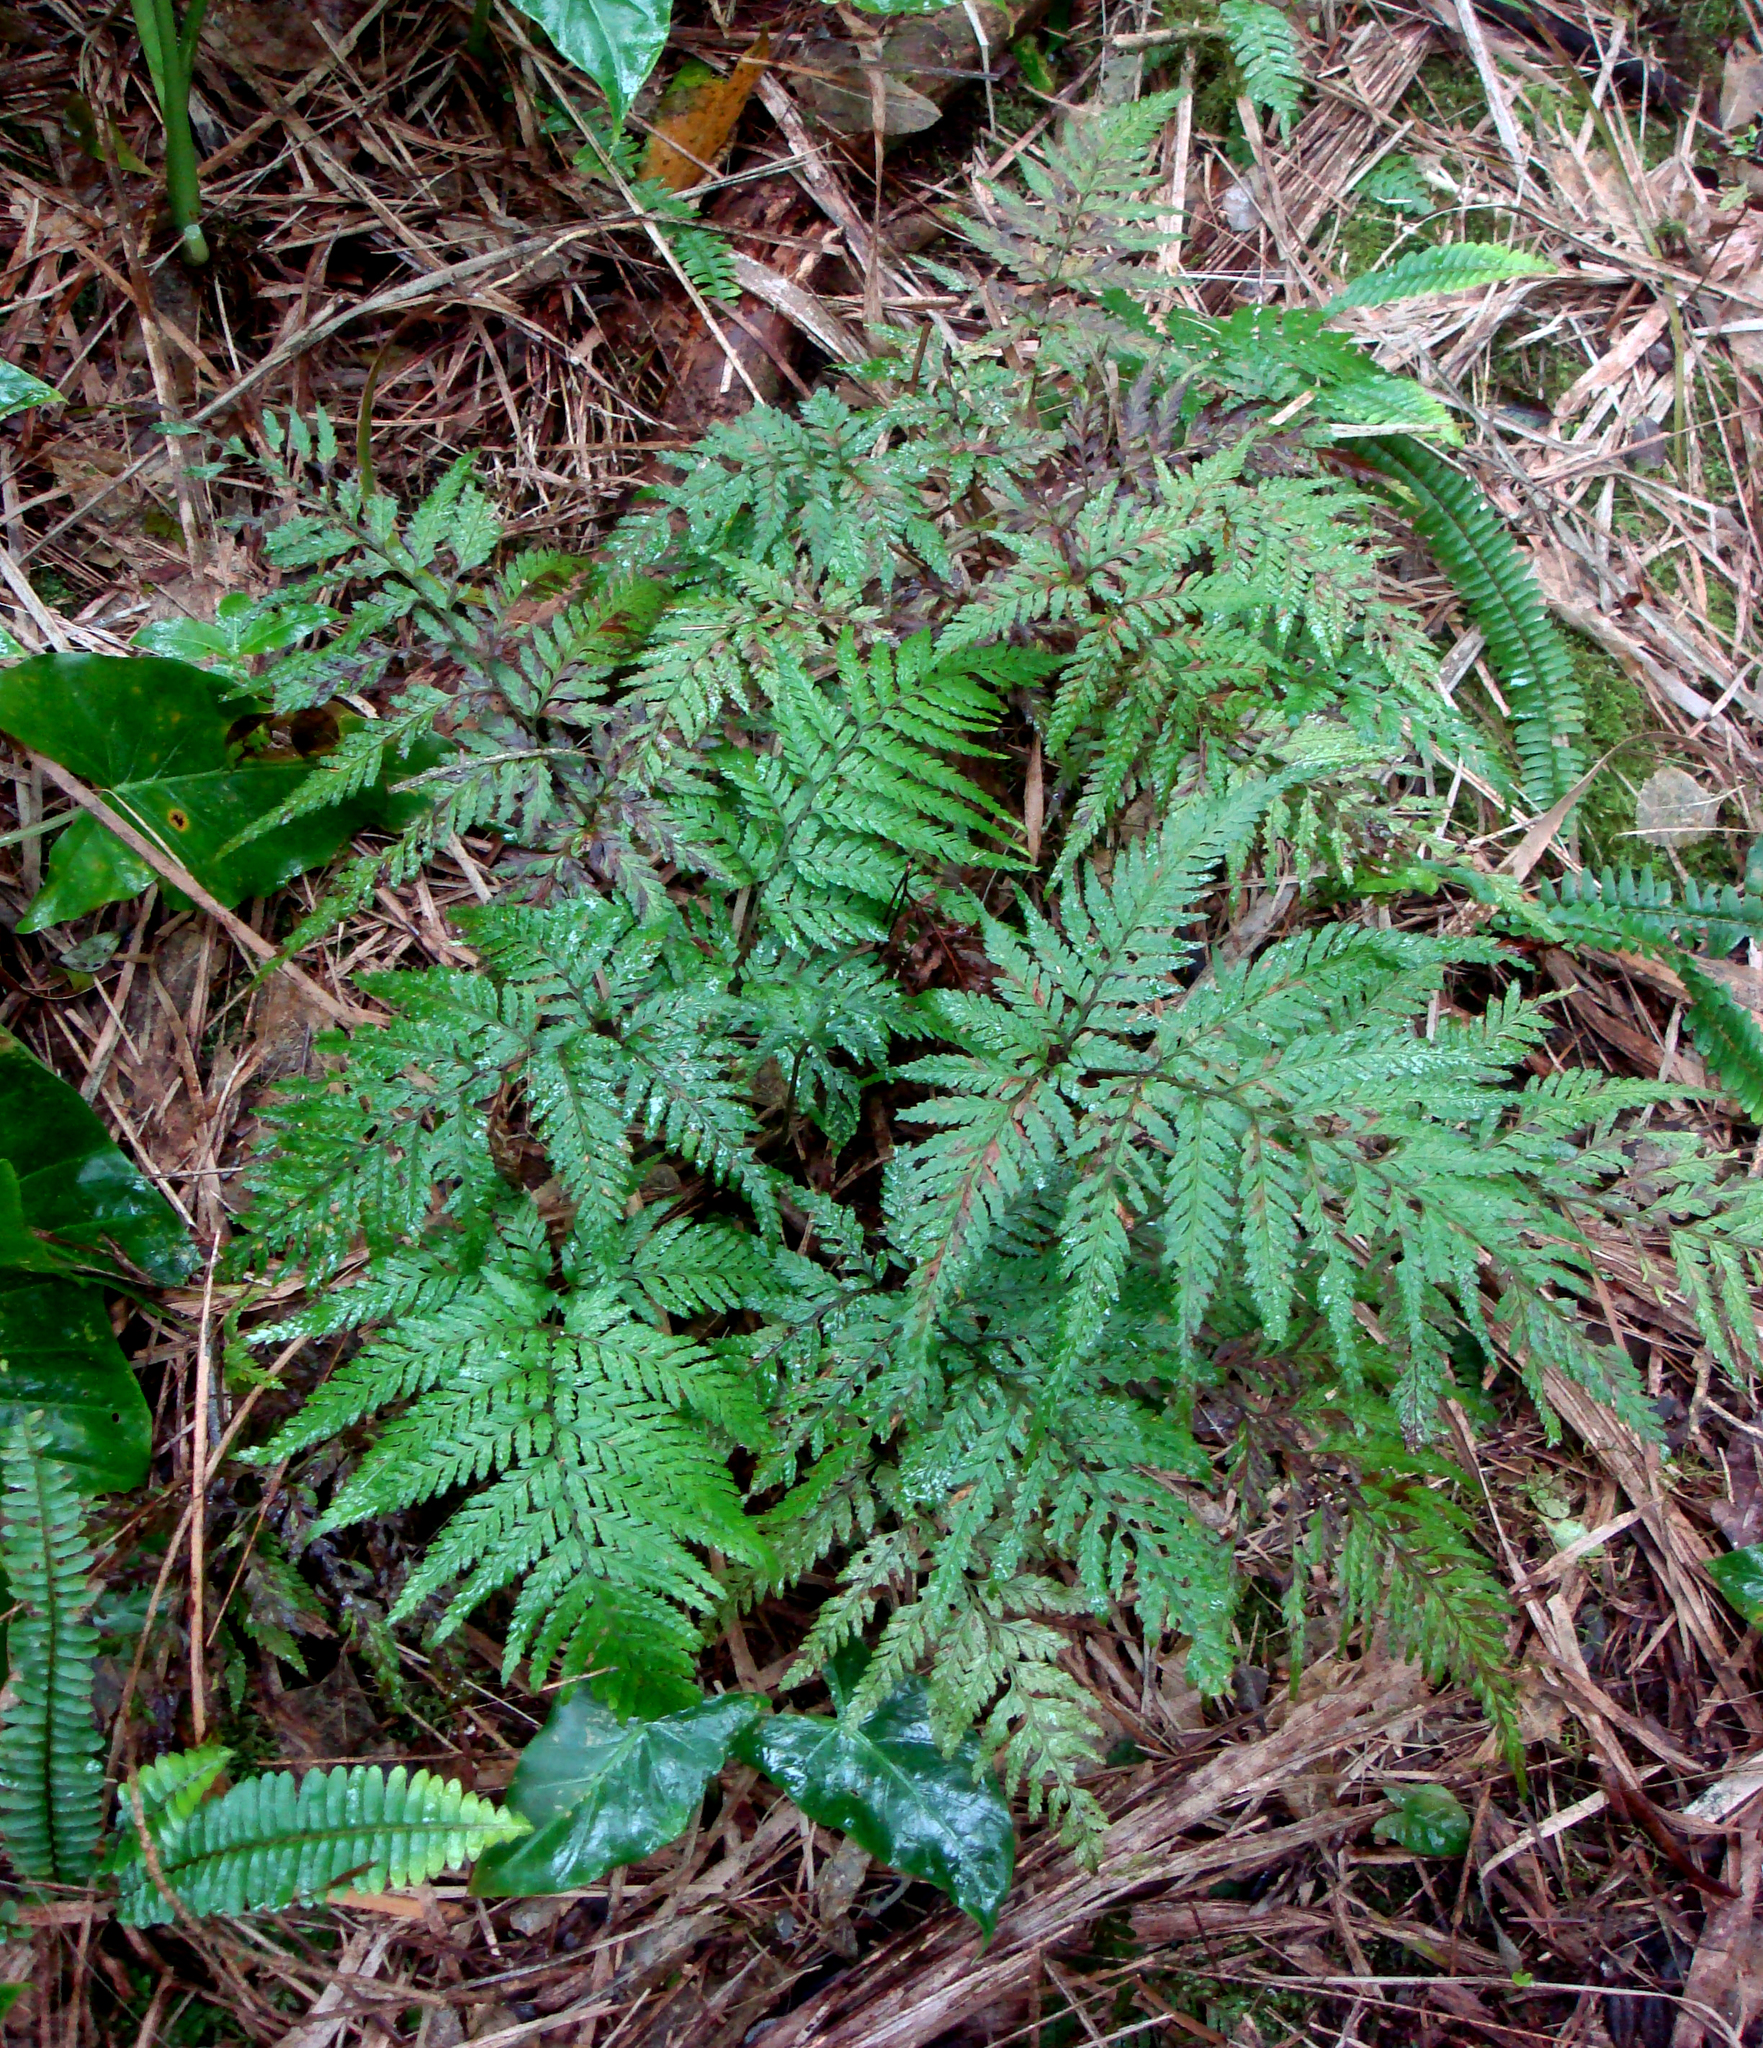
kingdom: Plantae
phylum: Tracheophyta
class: Polypodiopsida
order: Polypodiales
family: Dryopteridaceae
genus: Parapolystichum
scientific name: Parapolystichum kermadecense
